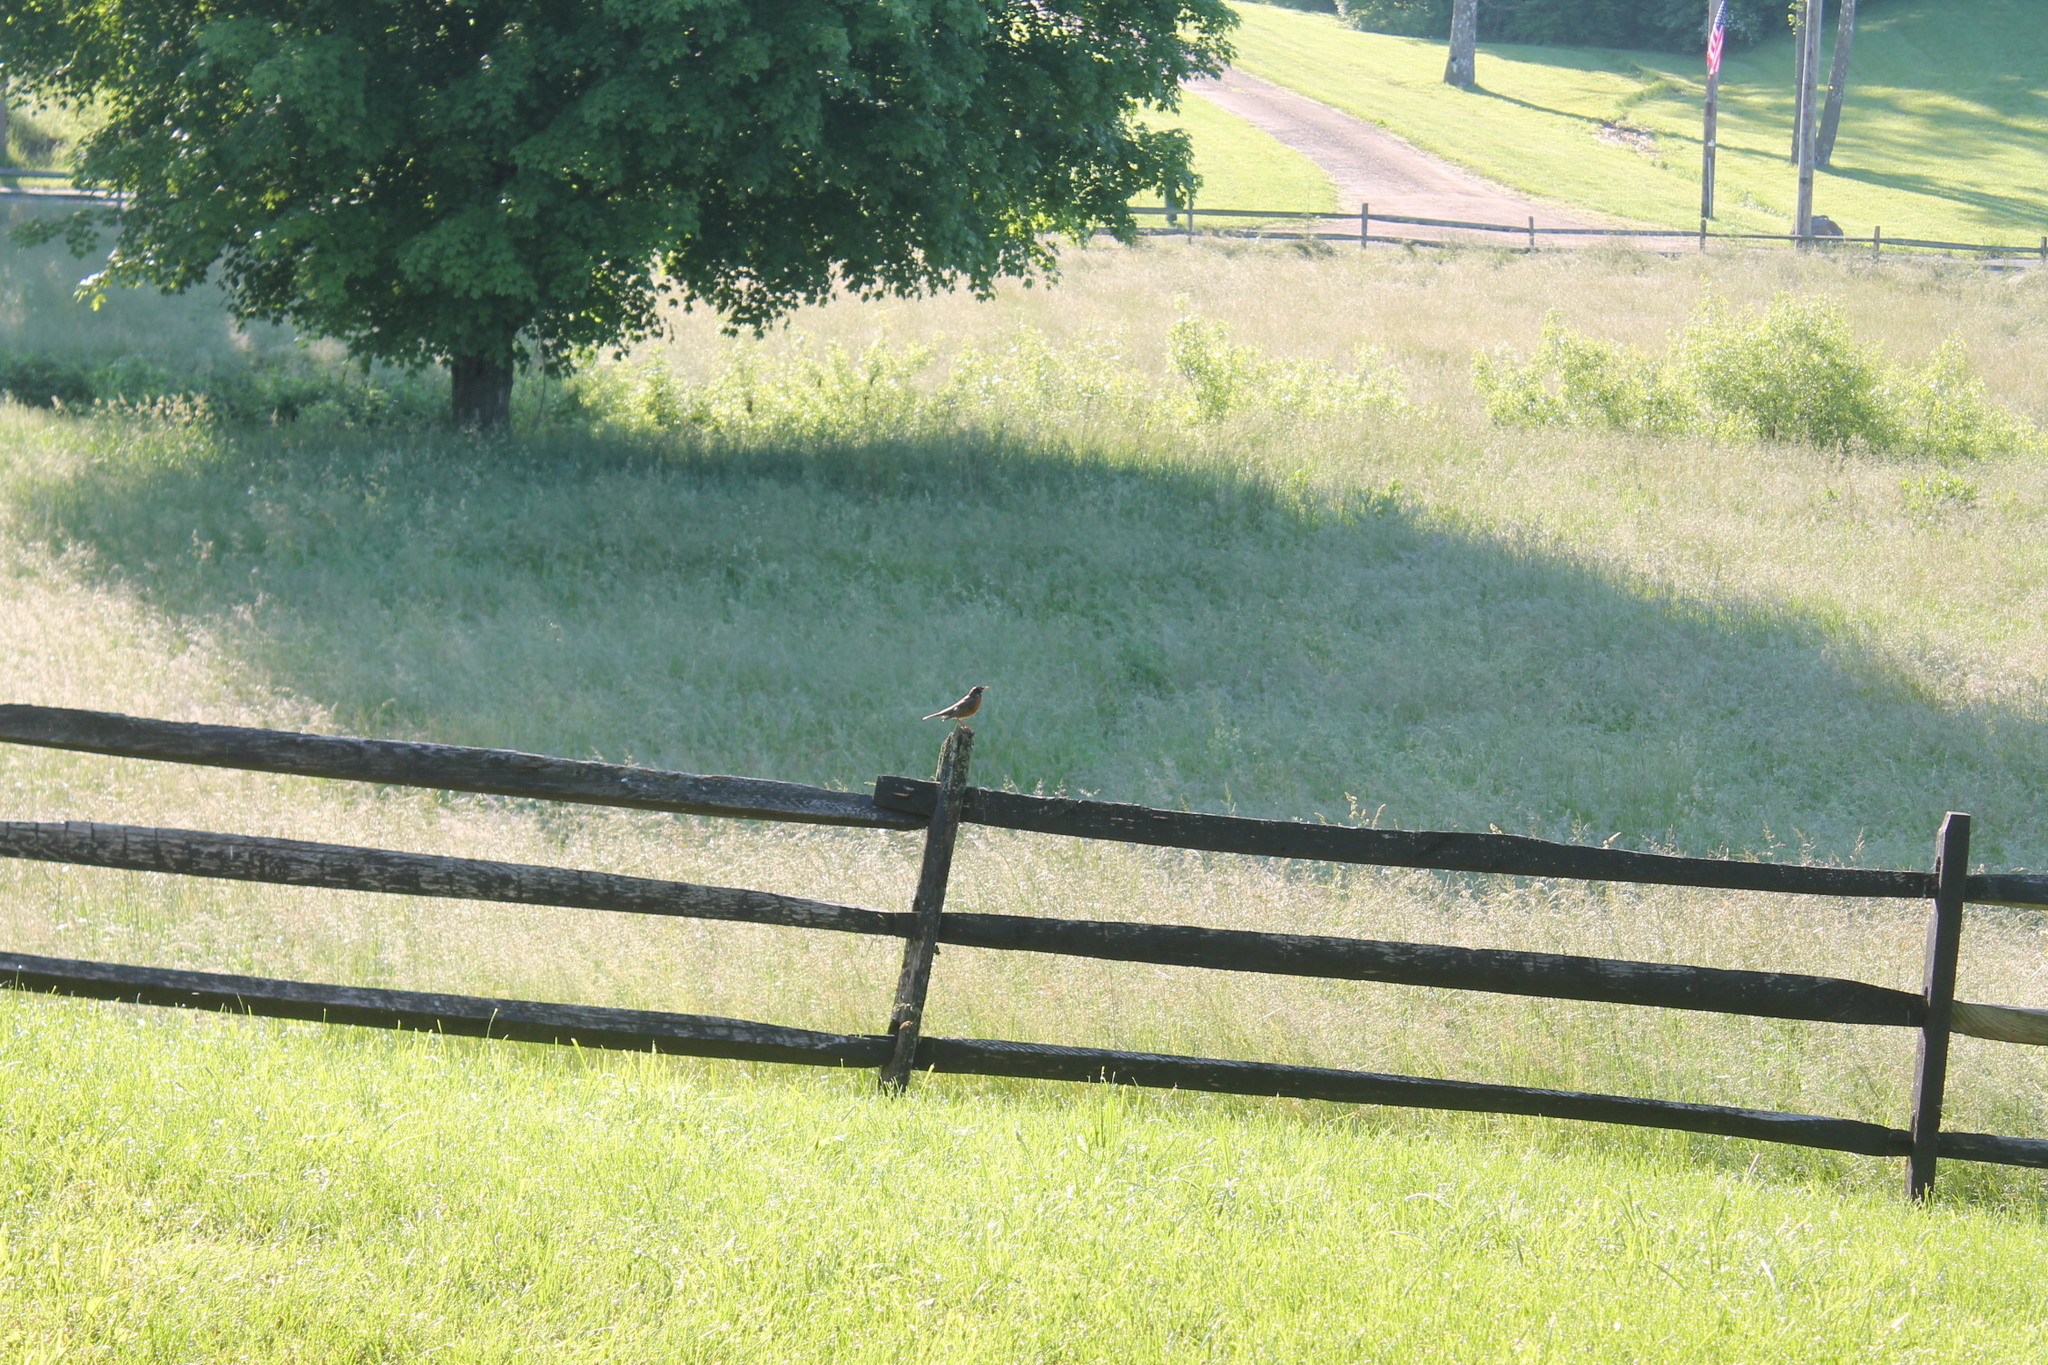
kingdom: Animalia
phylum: Chordata
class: Aves
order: Passeriformes
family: Turdidae
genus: Turdus
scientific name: Turdus migratorius
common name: American robin
